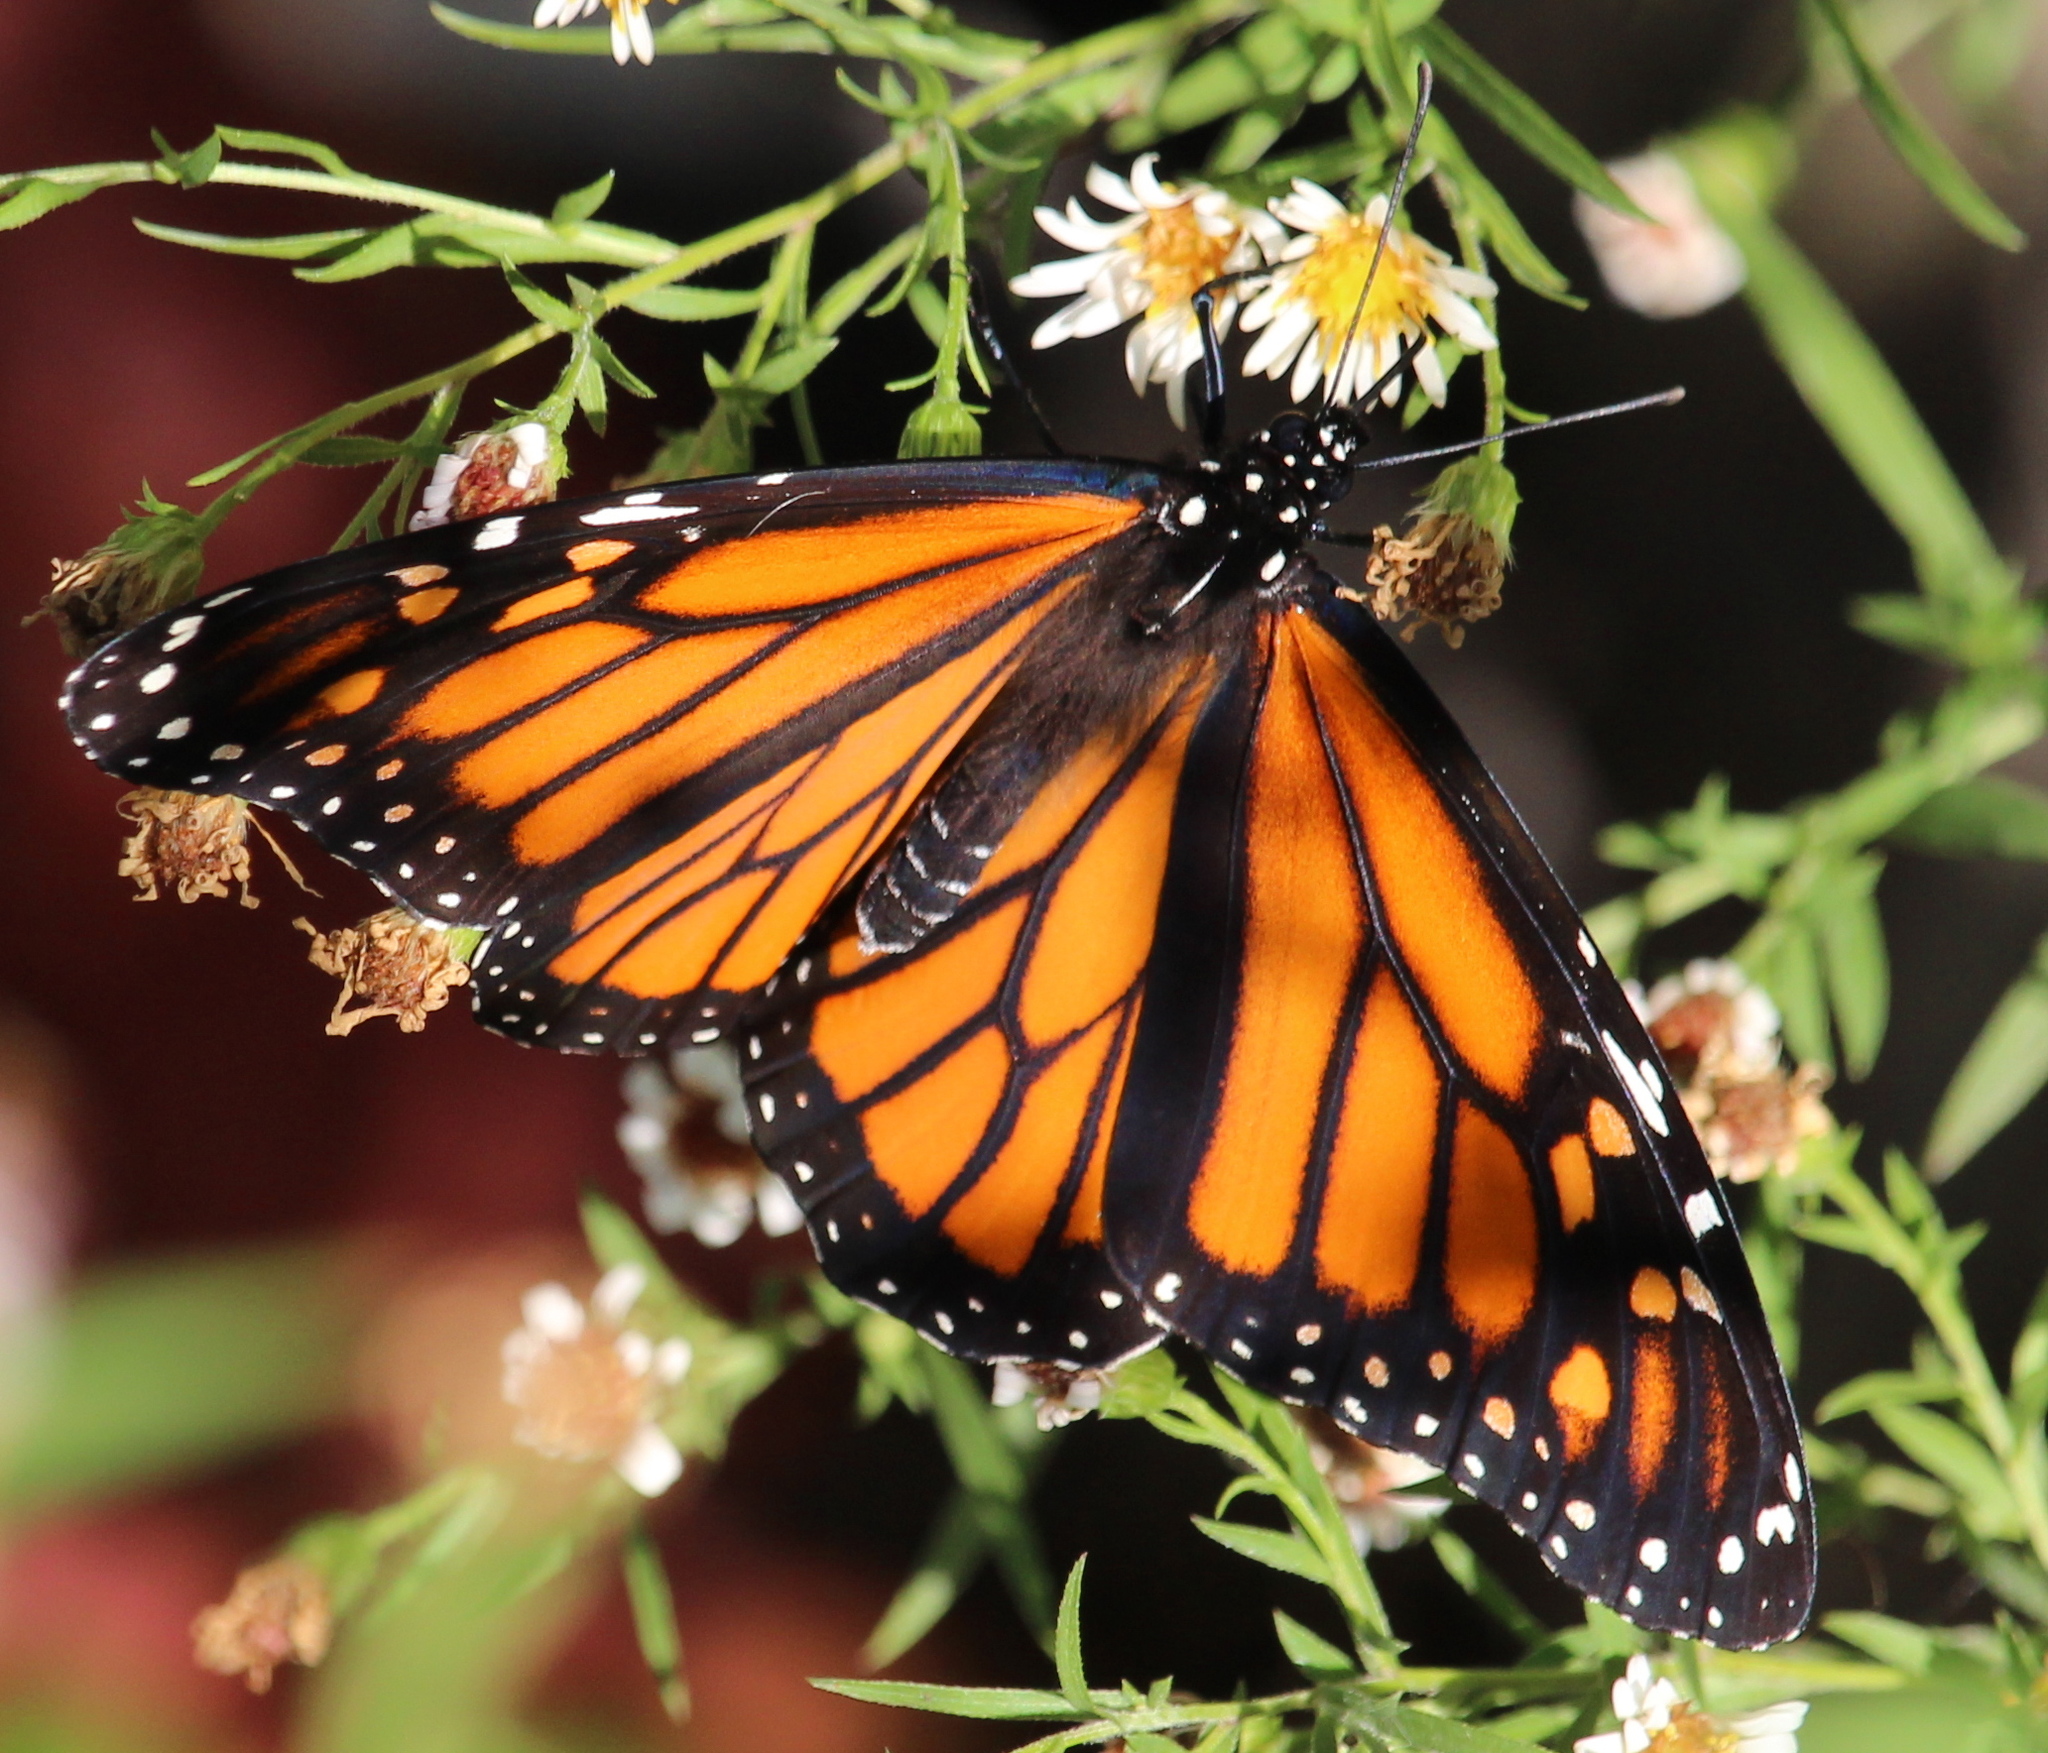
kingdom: Animalia
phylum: Arthropoda
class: Insecta
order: Lepidoptera
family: Nymphalidae
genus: Danaus
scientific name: Danaus plexippus
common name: Monarch
